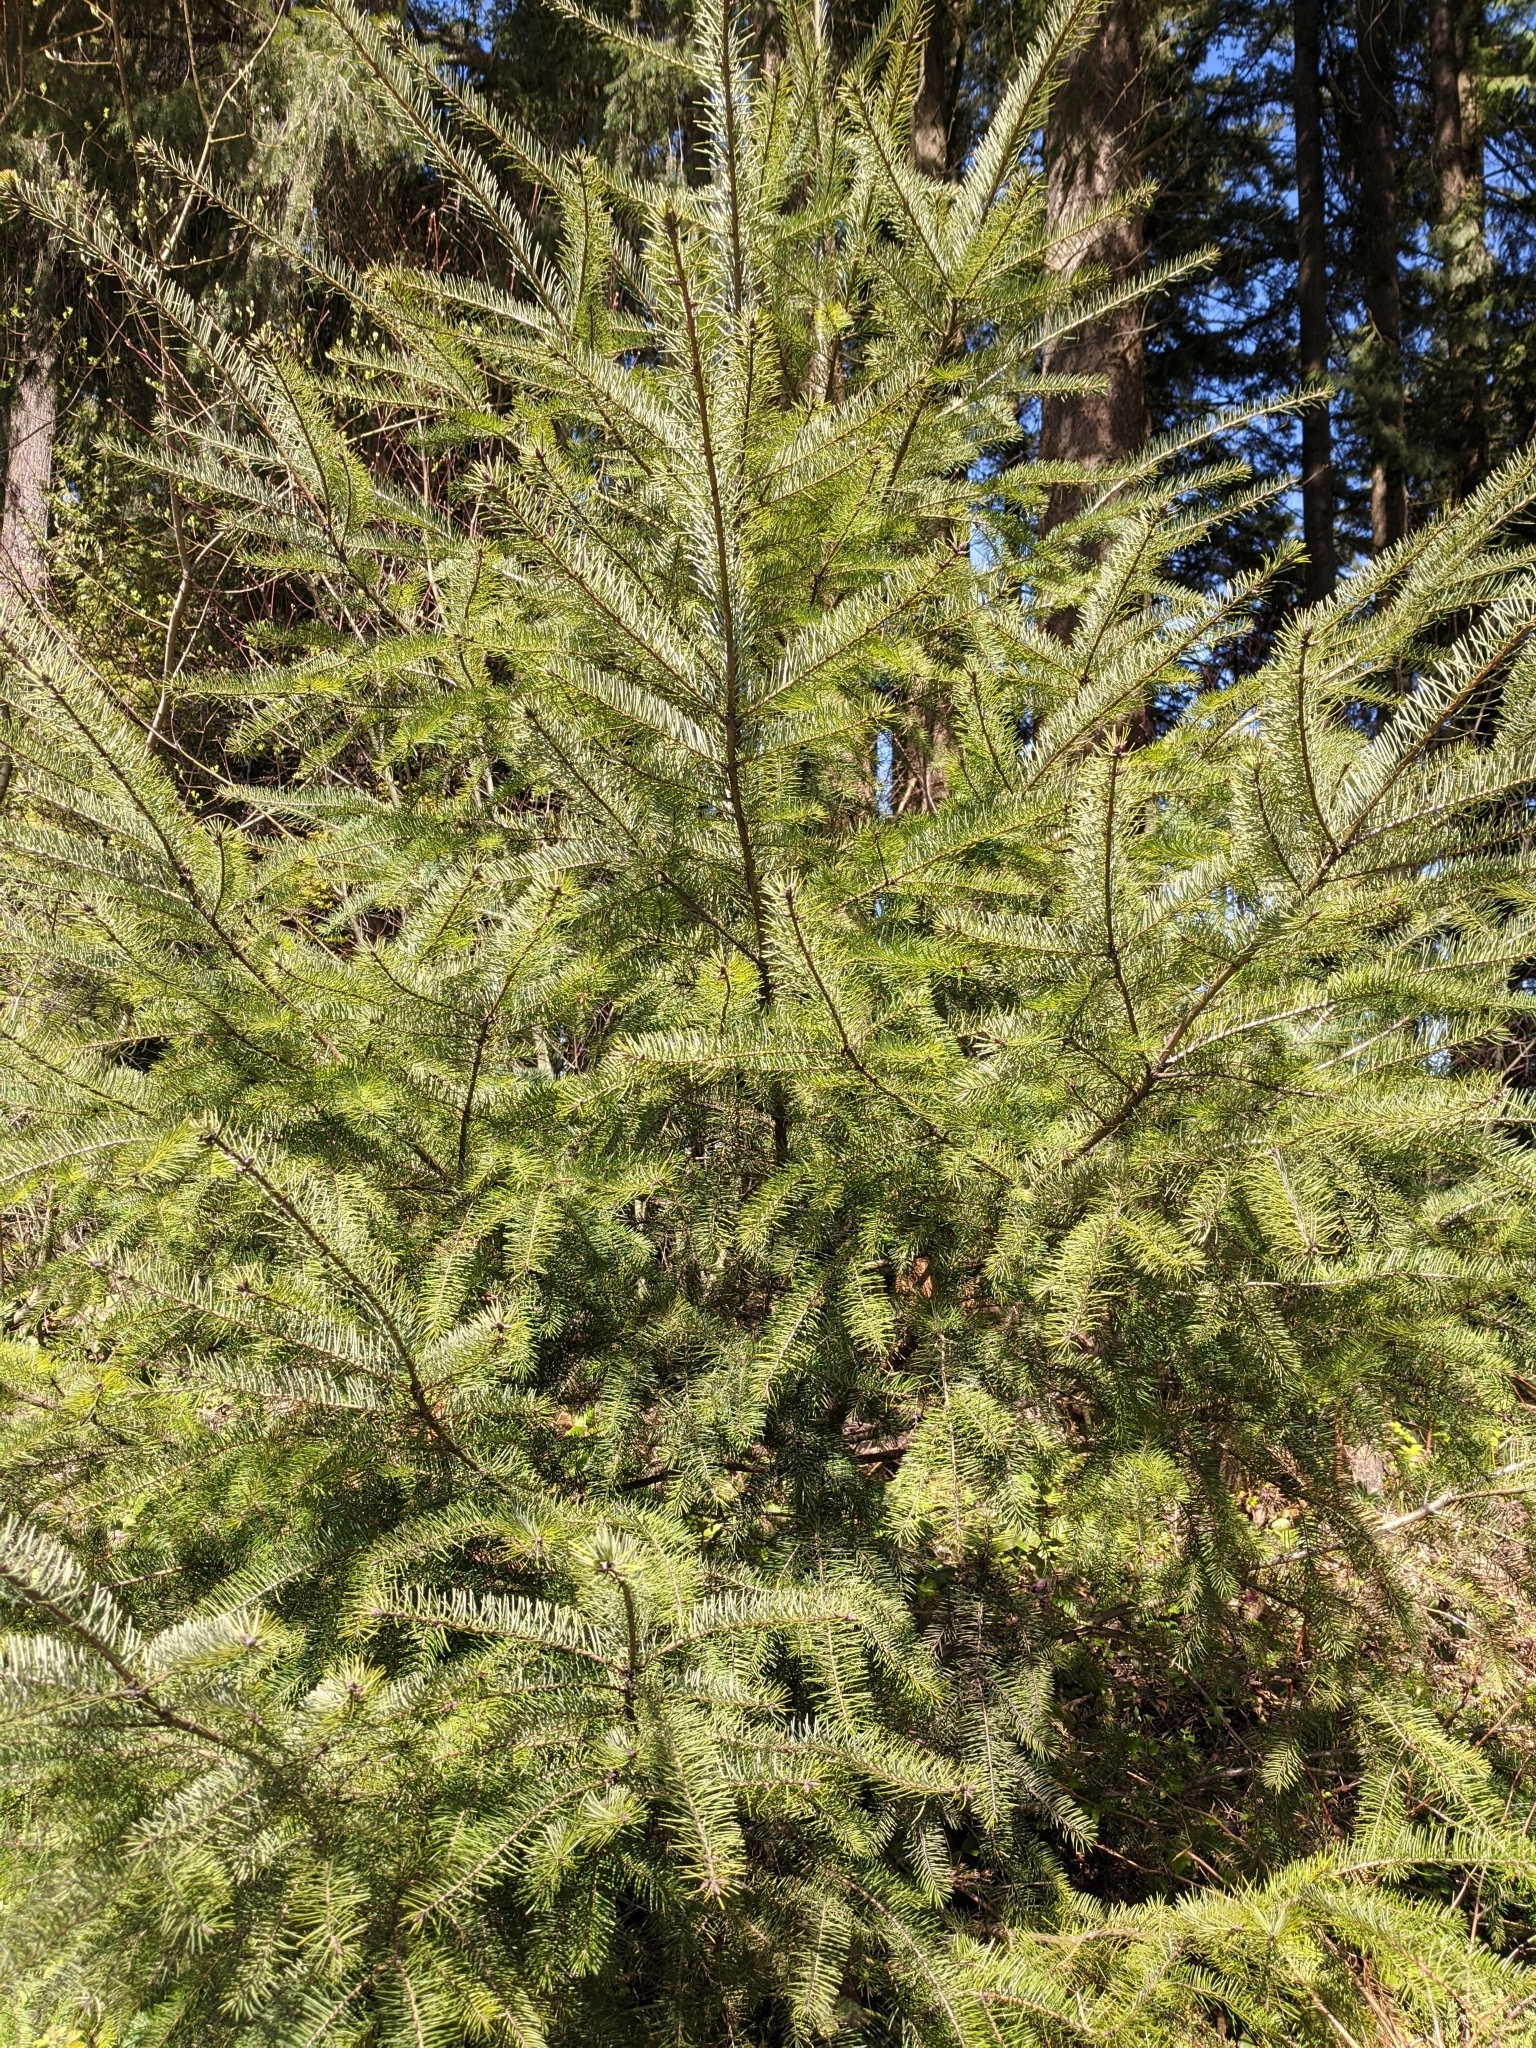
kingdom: Plantae
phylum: Tracheophyta
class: Pinopsida
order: Pinales
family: Pinaceae
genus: Pseudotsuga
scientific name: Pseudotsuga menziesii
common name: Douglas fir
